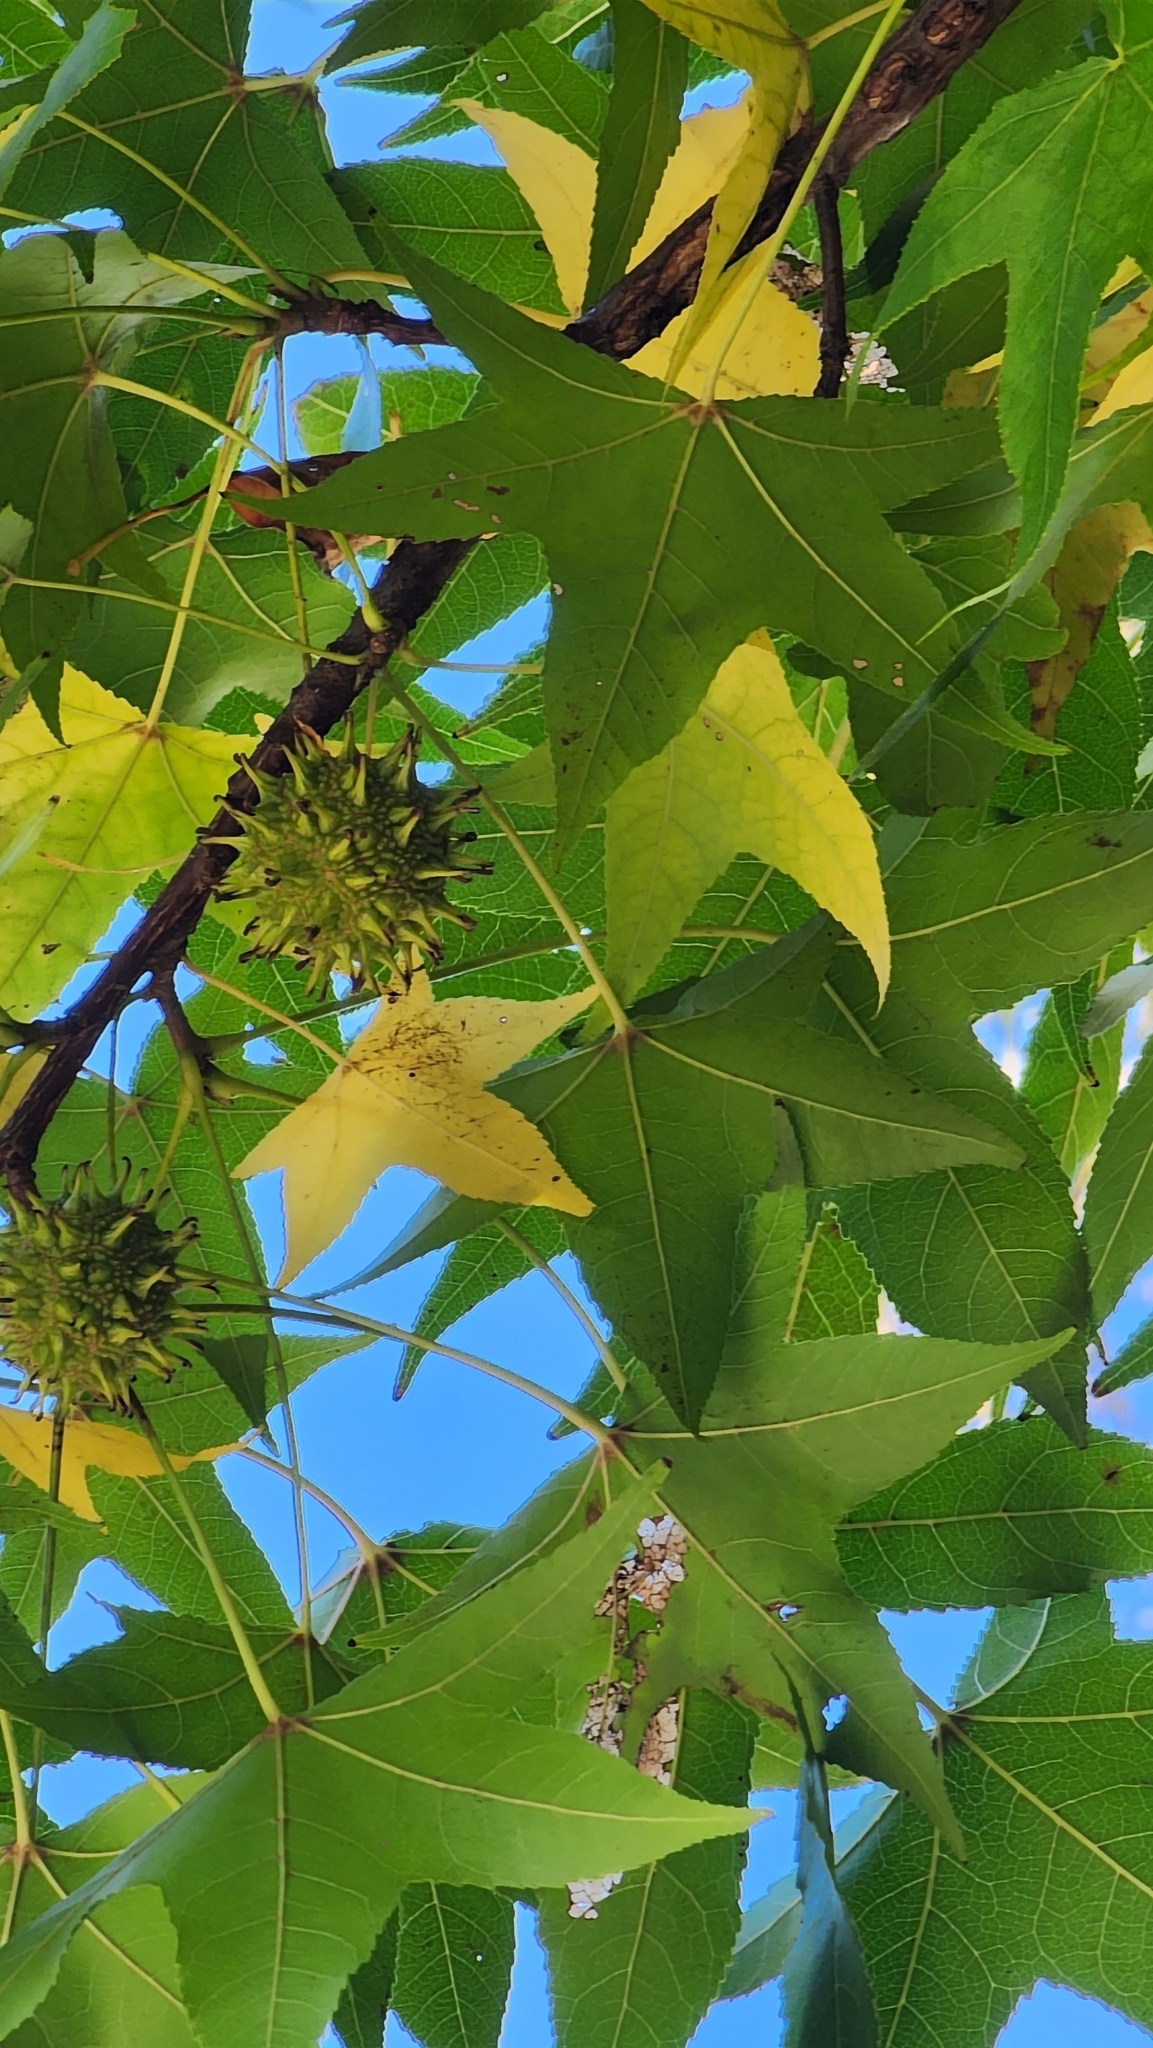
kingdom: Plantae
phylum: Tracheophyta
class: Magnoliopsida
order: Saxifragales
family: Altingiaceae
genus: Liquidambar
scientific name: Liquidambar styraciflua
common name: Sweet gum
